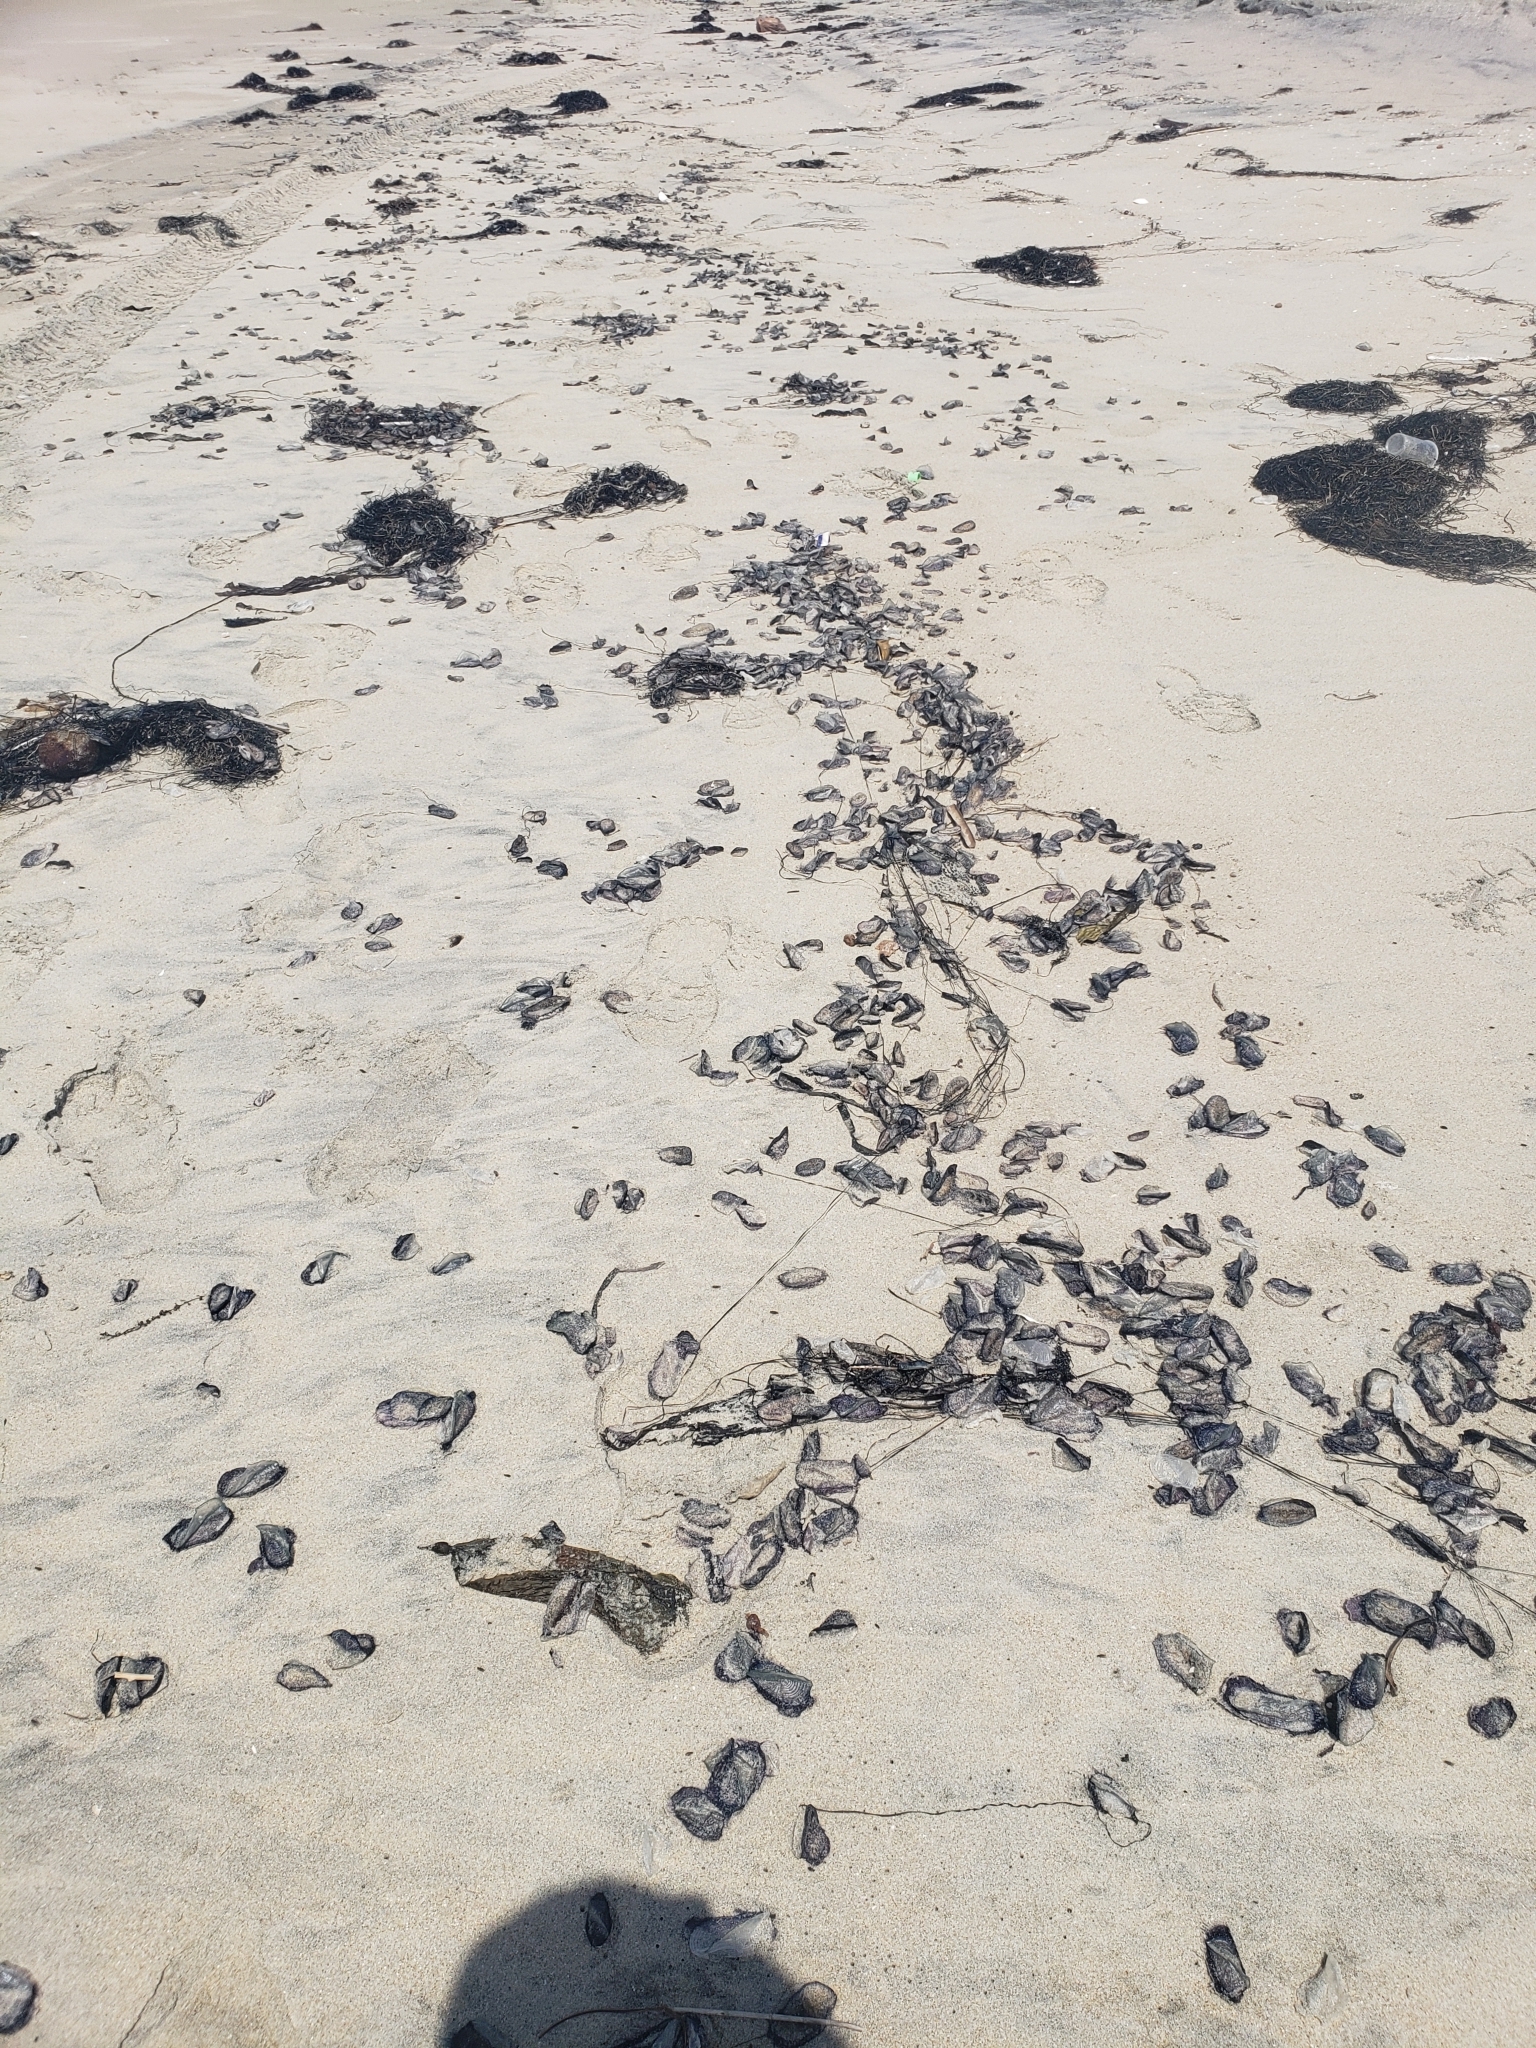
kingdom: Animalia
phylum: Cnidaria
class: Hydrozoa
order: Anthoathecata
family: Porpitidae
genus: Velella
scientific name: Velella velella
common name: By-the-wind-sailor
